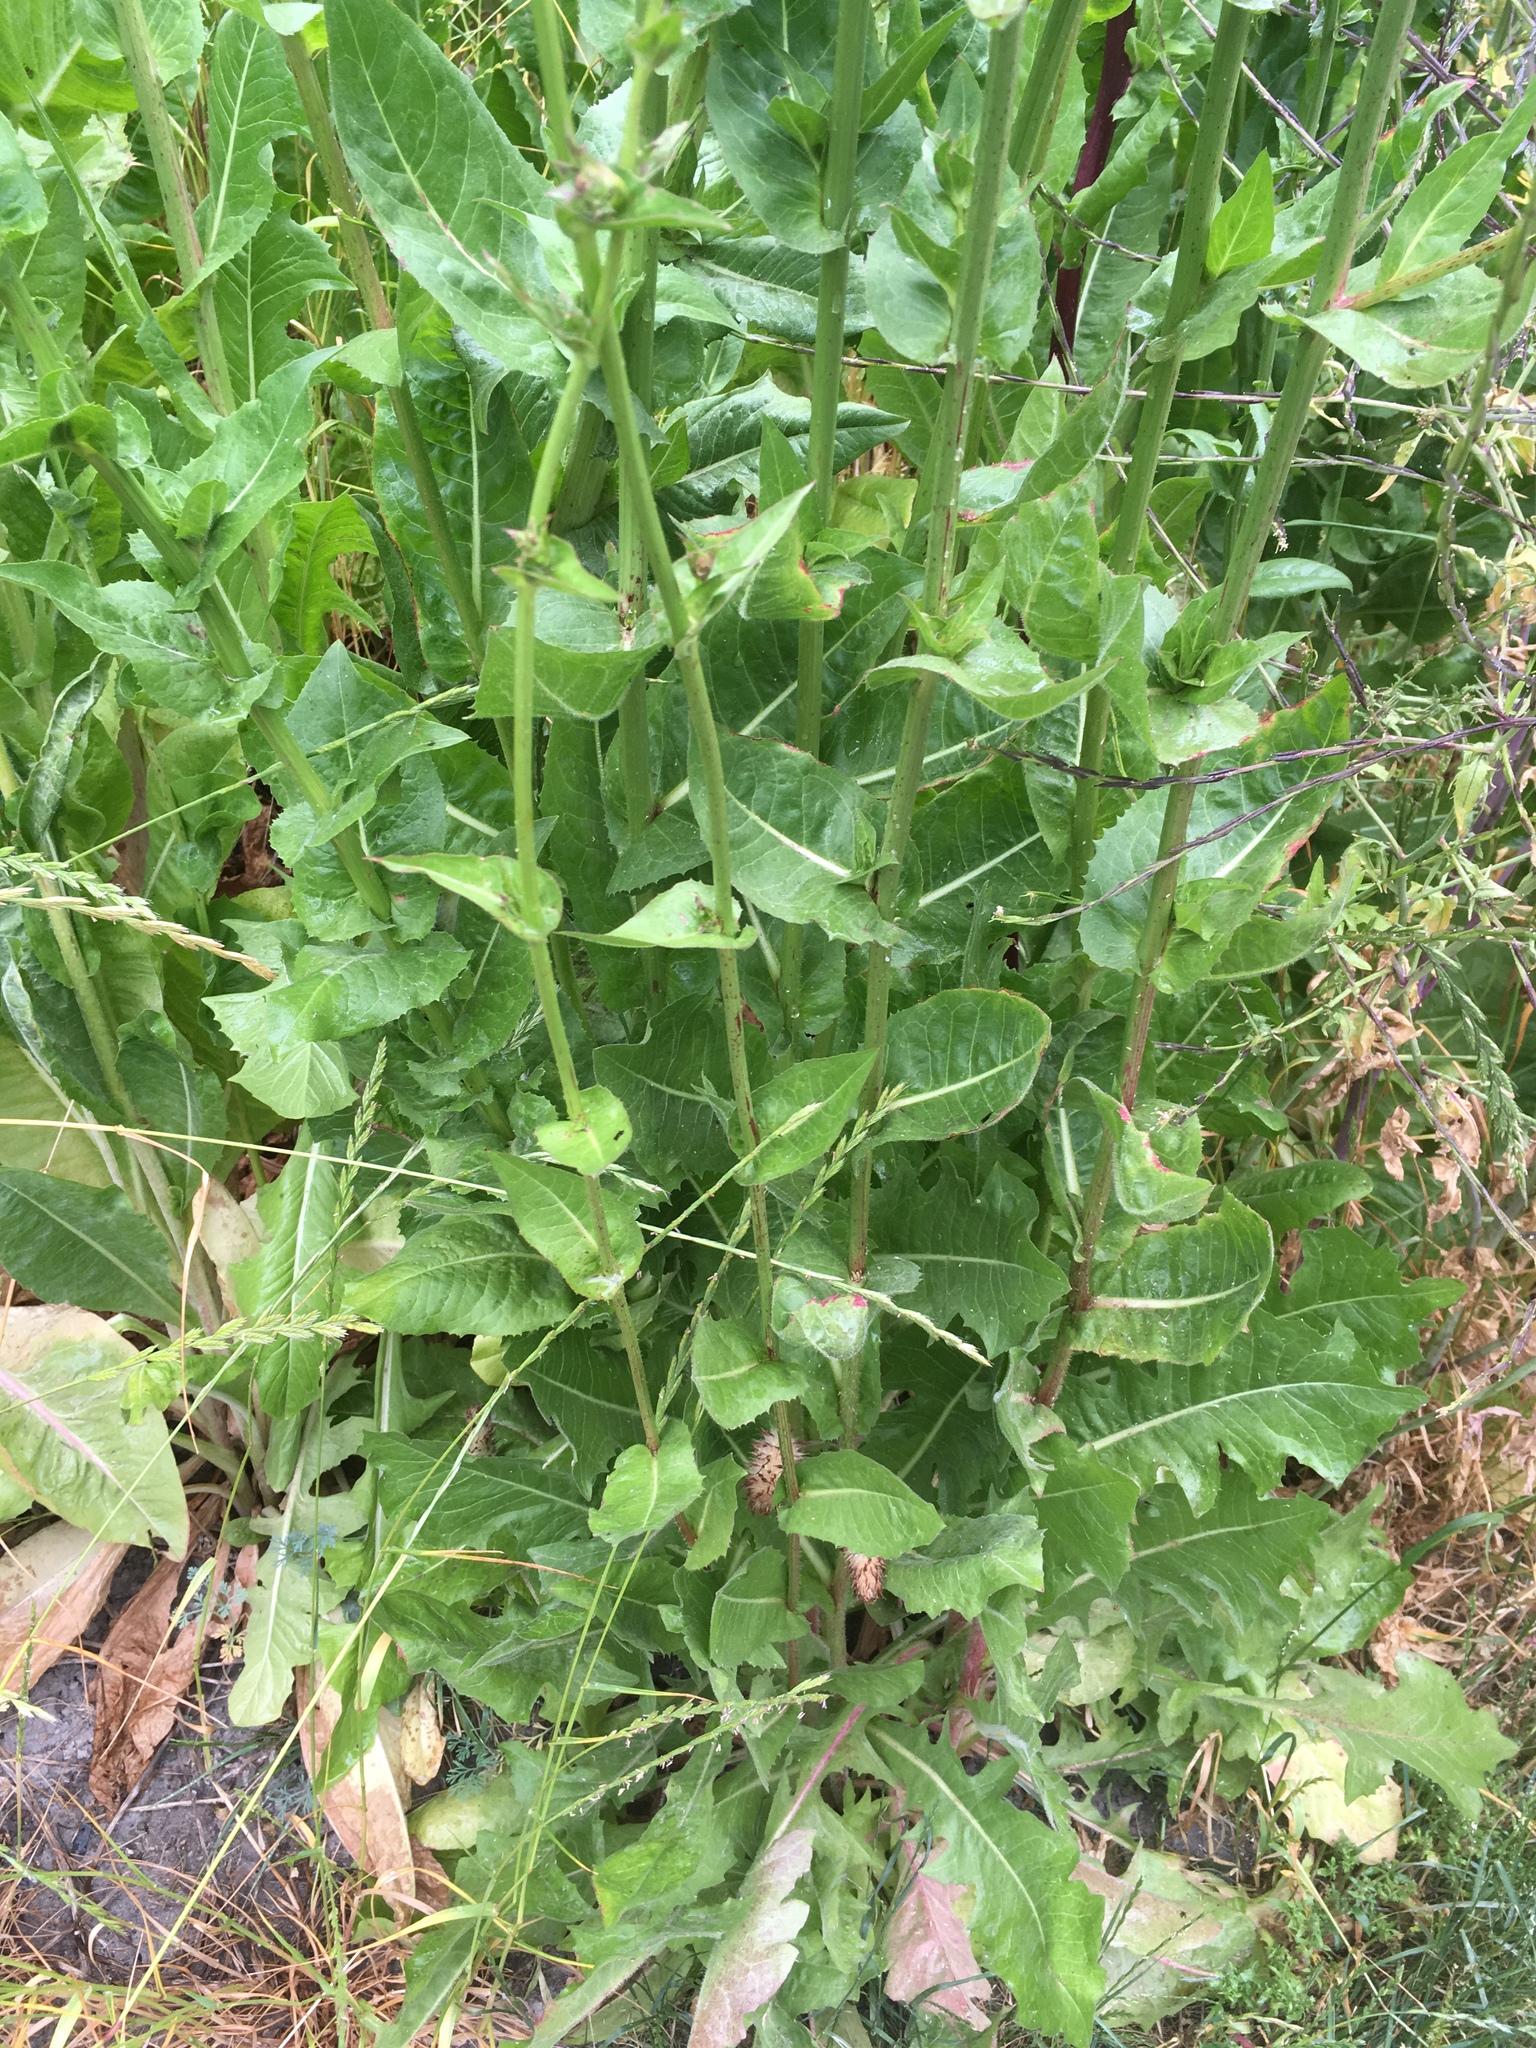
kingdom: Plantae
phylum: Tracheophyta
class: Magnoliopsida
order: Asterales
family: Asteraceae
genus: Cichorium
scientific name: Cichorium intybus
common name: Chicory
